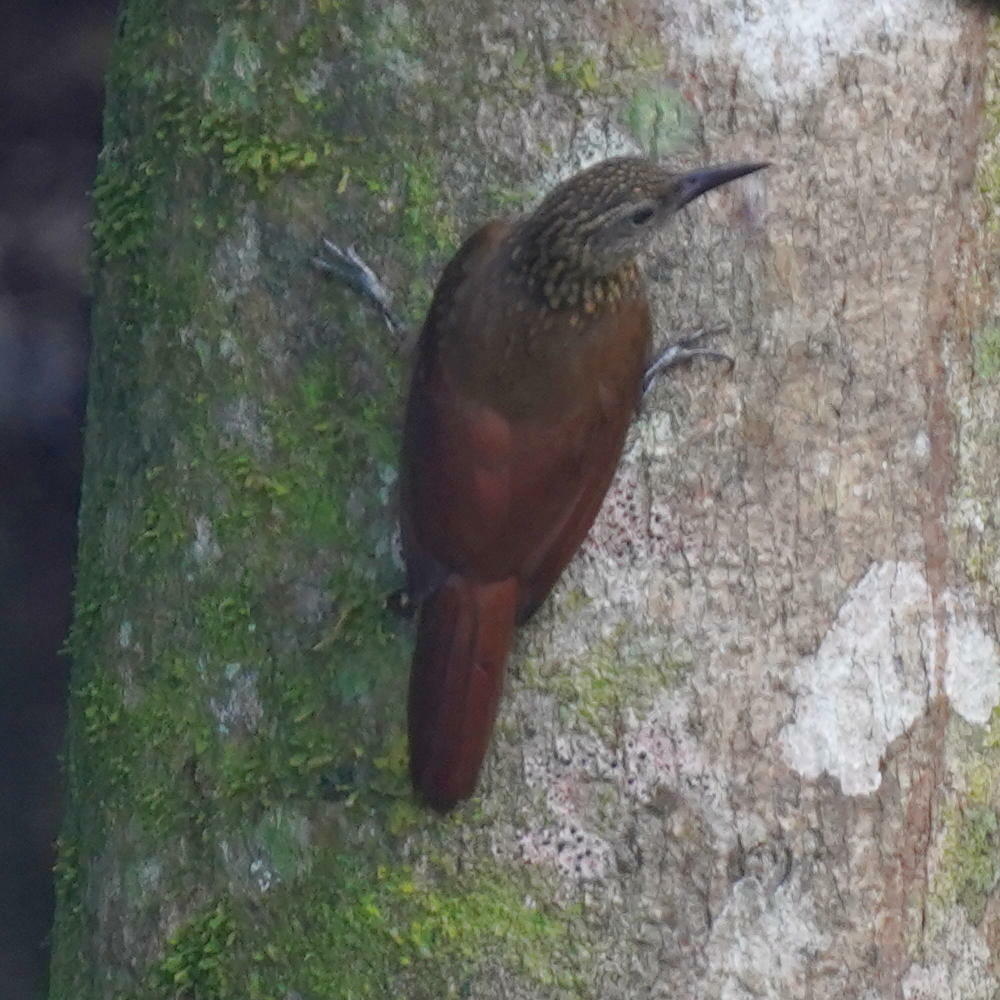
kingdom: Animalia
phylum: Chordata
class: Aves
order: Passeriformes
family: Furnariidae
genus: Xiphorhynchus
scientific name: Xiphorhynchus susurrans
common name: Cocoa woodcreeper
